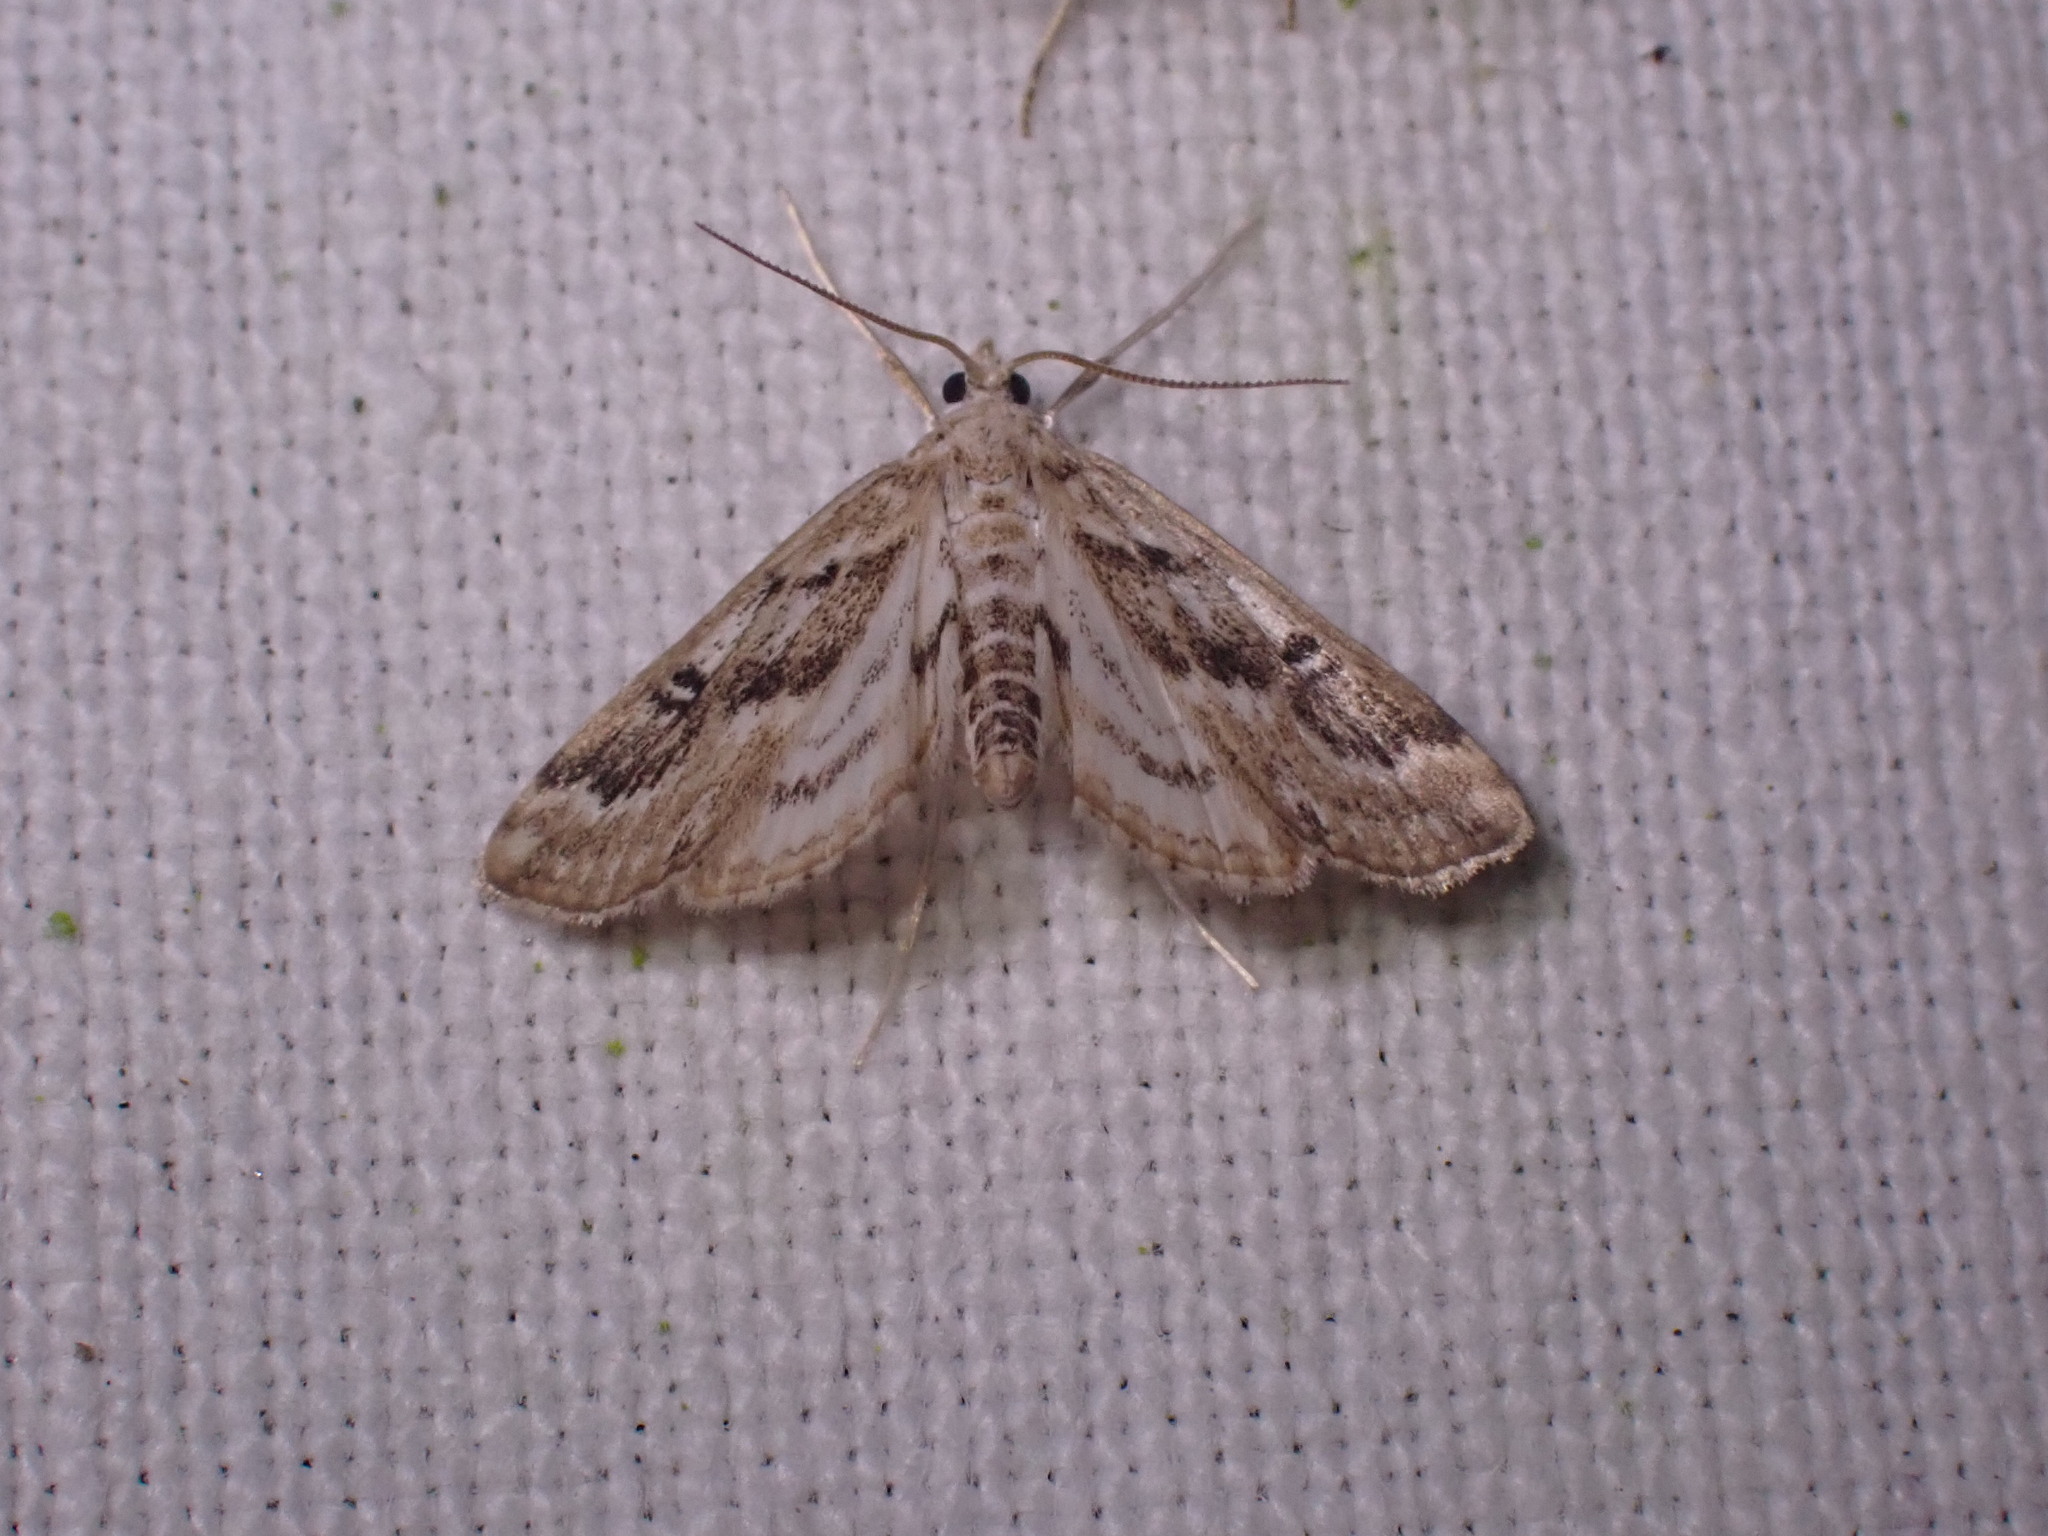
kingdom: Animalia
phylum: Arthropoda
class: Insecta
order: Lepidoptera
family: Crambidae
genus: Parapoynx
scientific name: Parapoynx stratiotata
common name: Ringed china-mark
